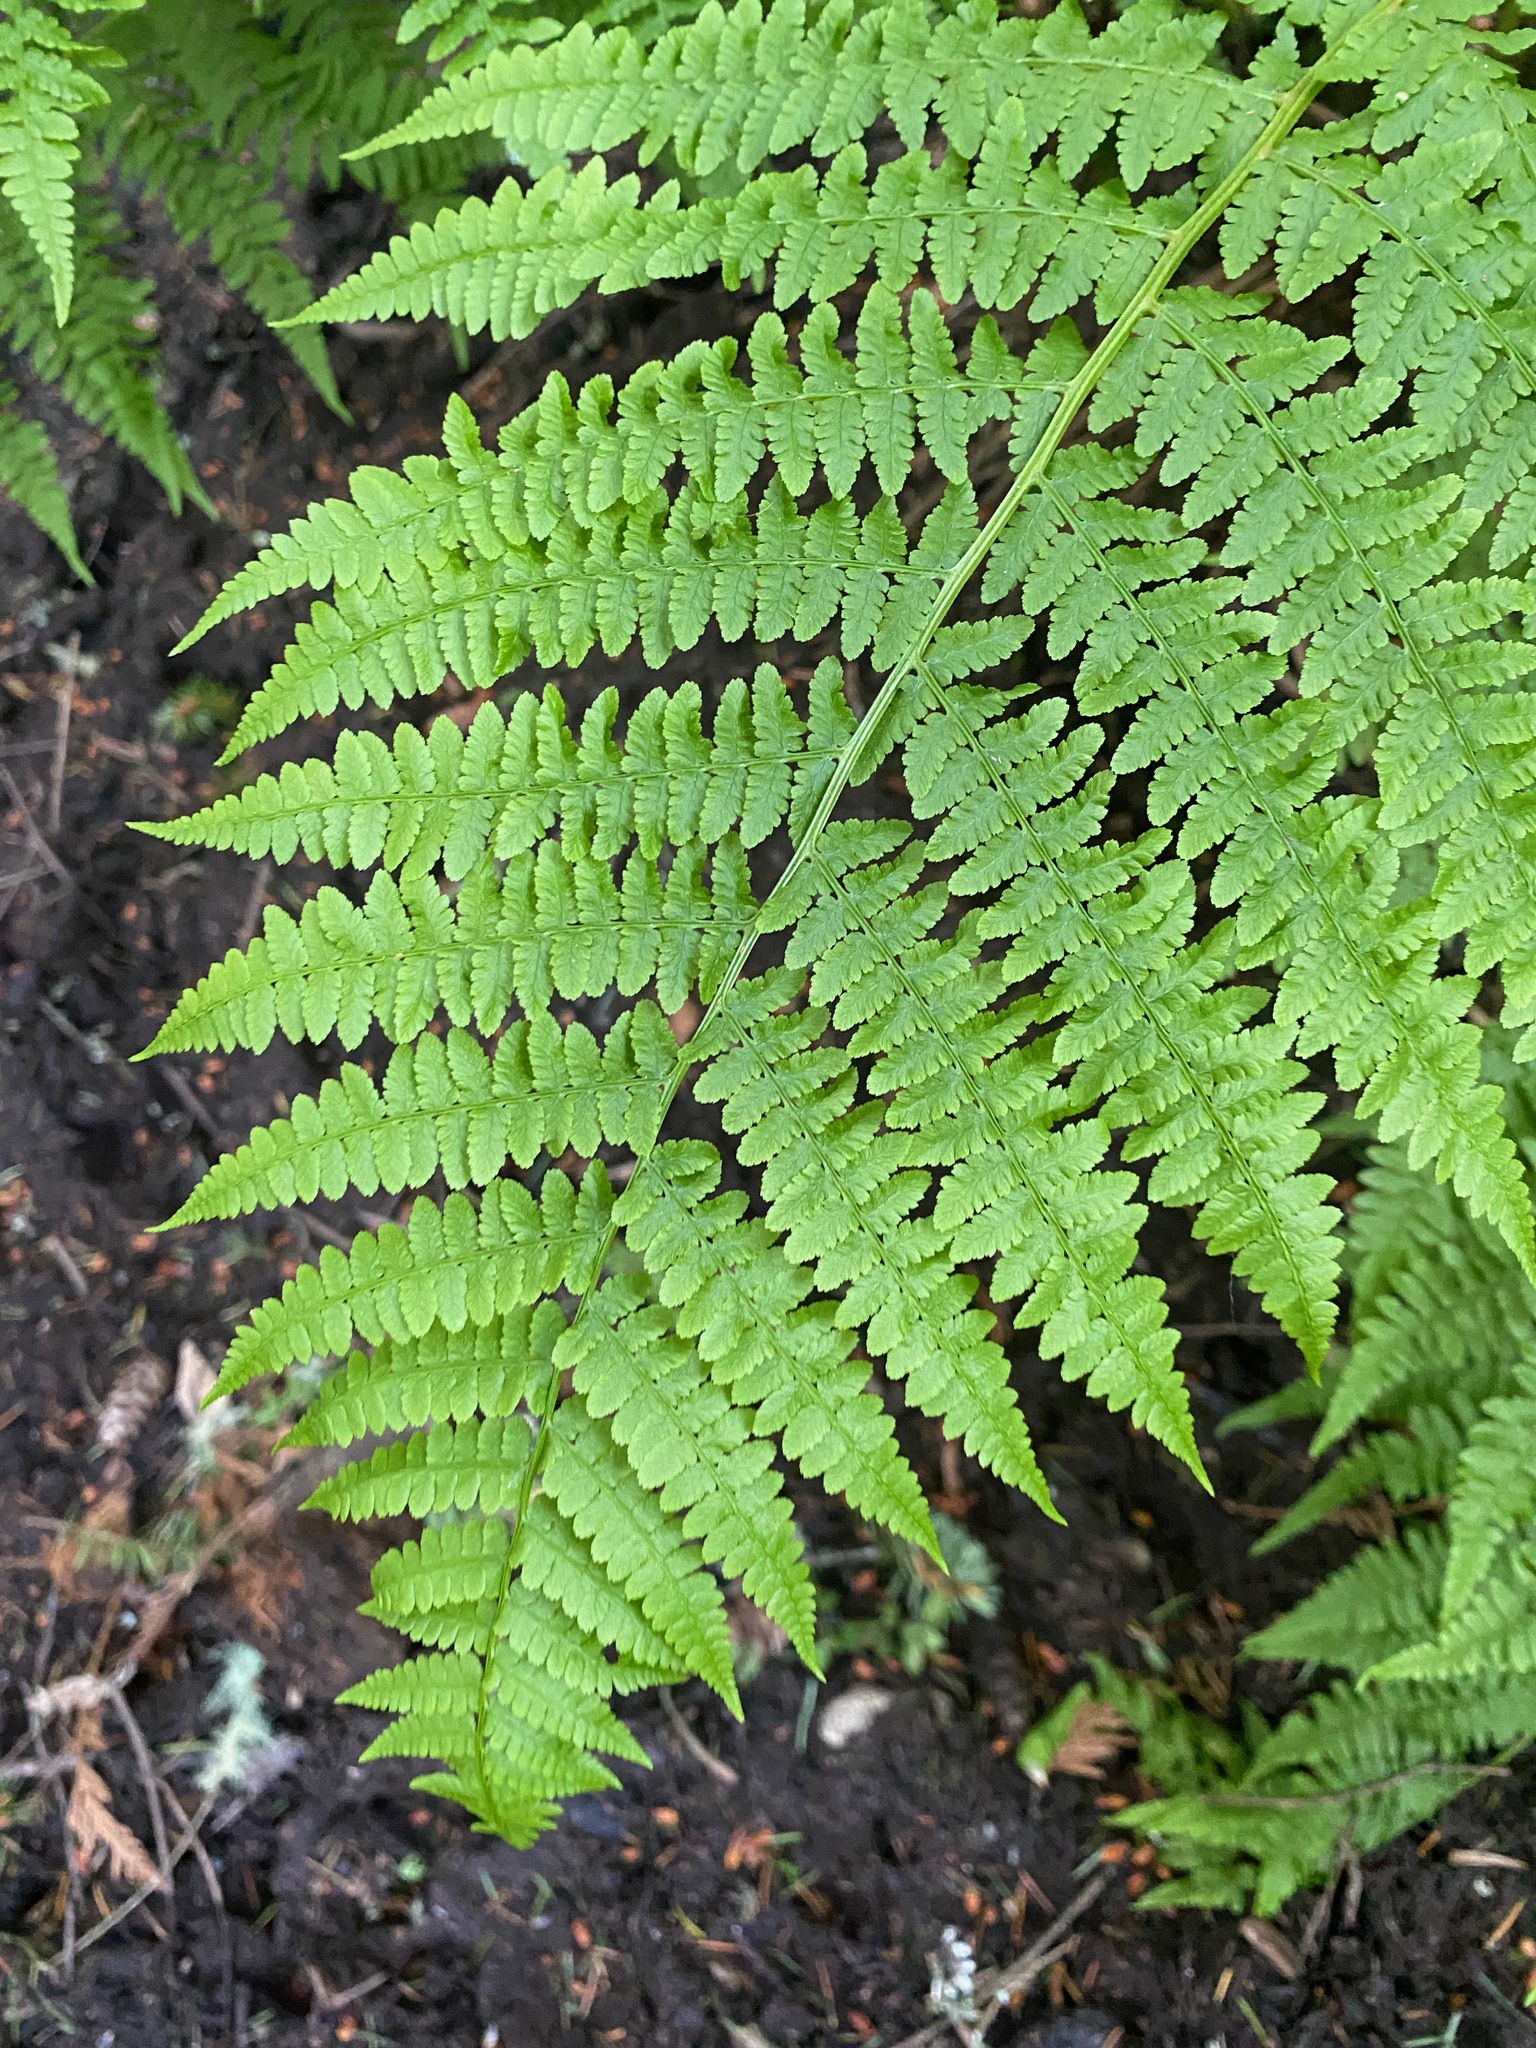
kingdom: Plantae
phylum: Tracheophyta
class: Polypodiopsida
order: Polypodiales
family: Athyriaceae
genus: Athyrium
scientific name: Athyrium filix-femina
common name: Lady fern
